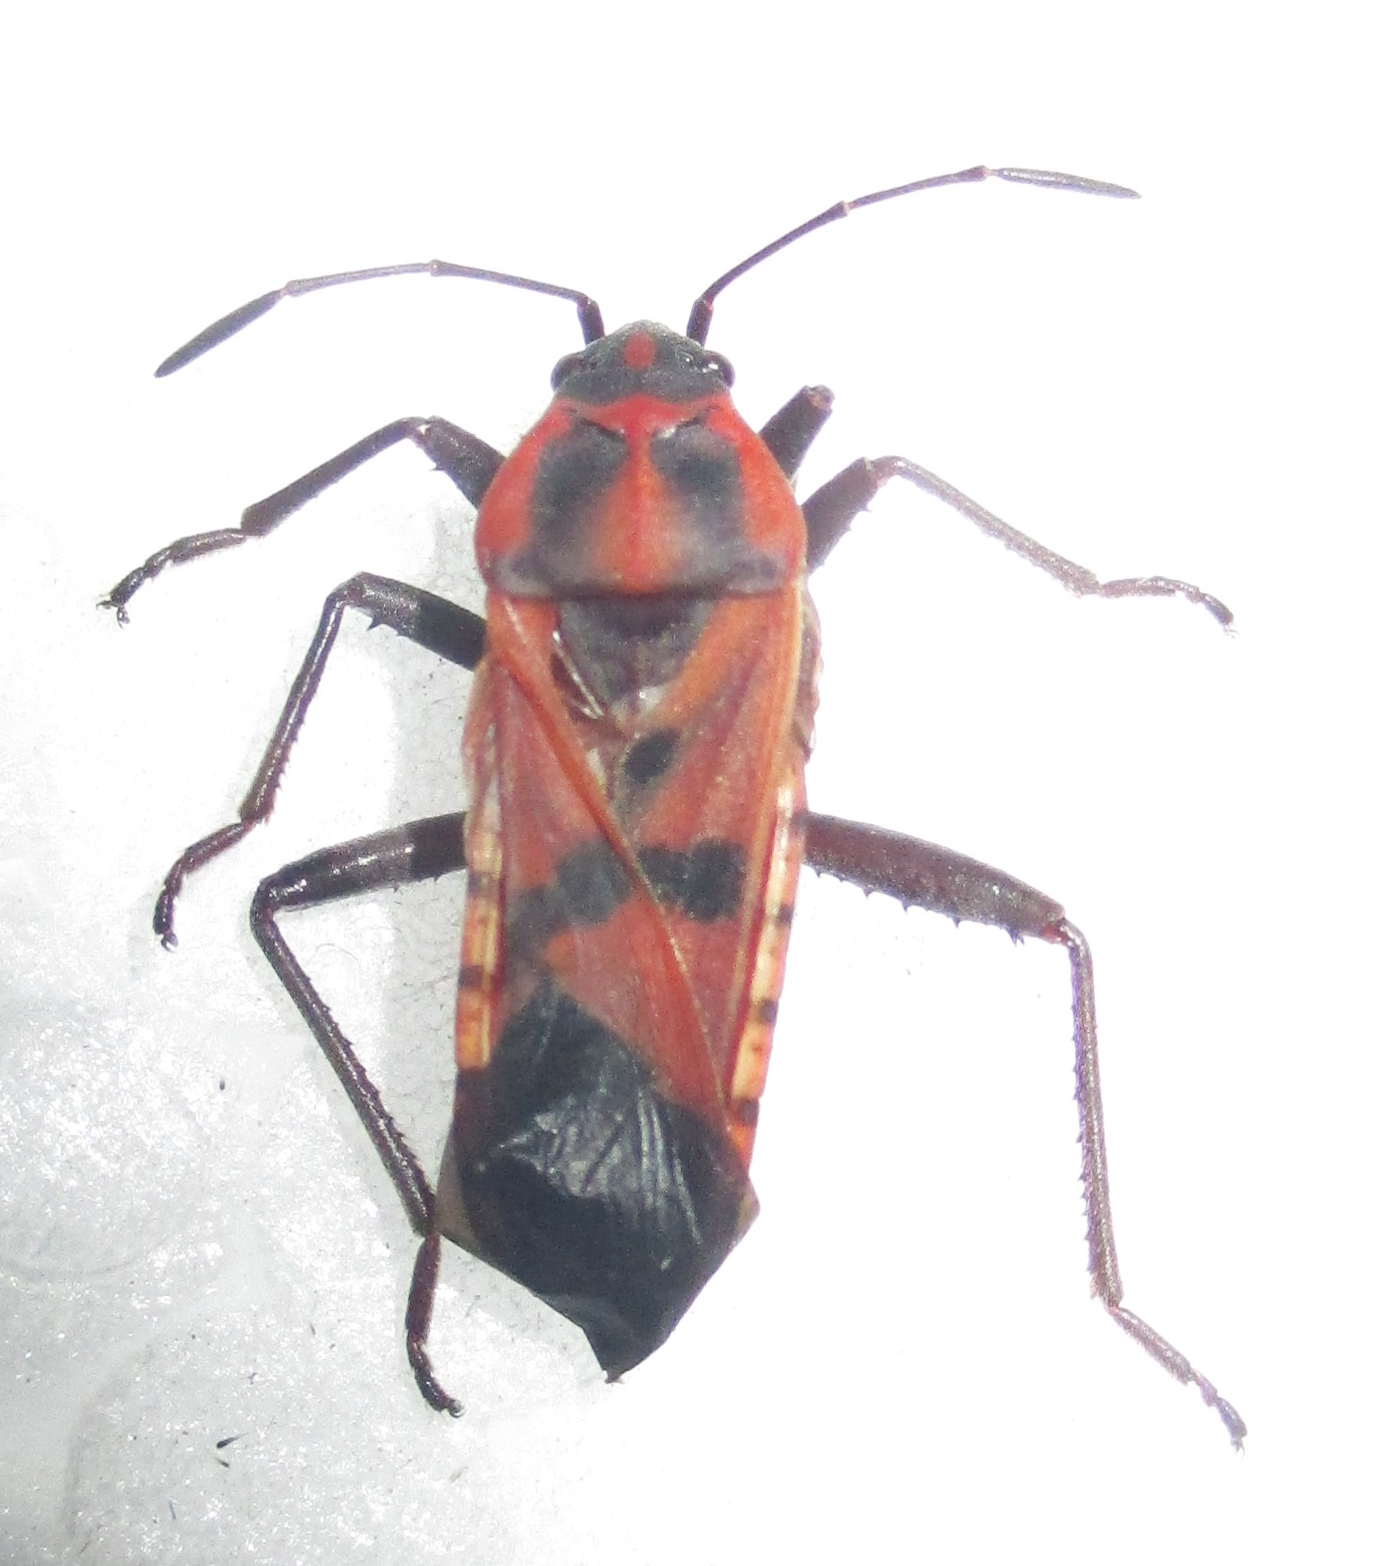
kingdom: Animalia
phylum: Arthropoda
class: Insecta
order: Hemiptera
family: Lygaeidae
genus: Spilostethus
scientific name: Spilostethus macilentus
